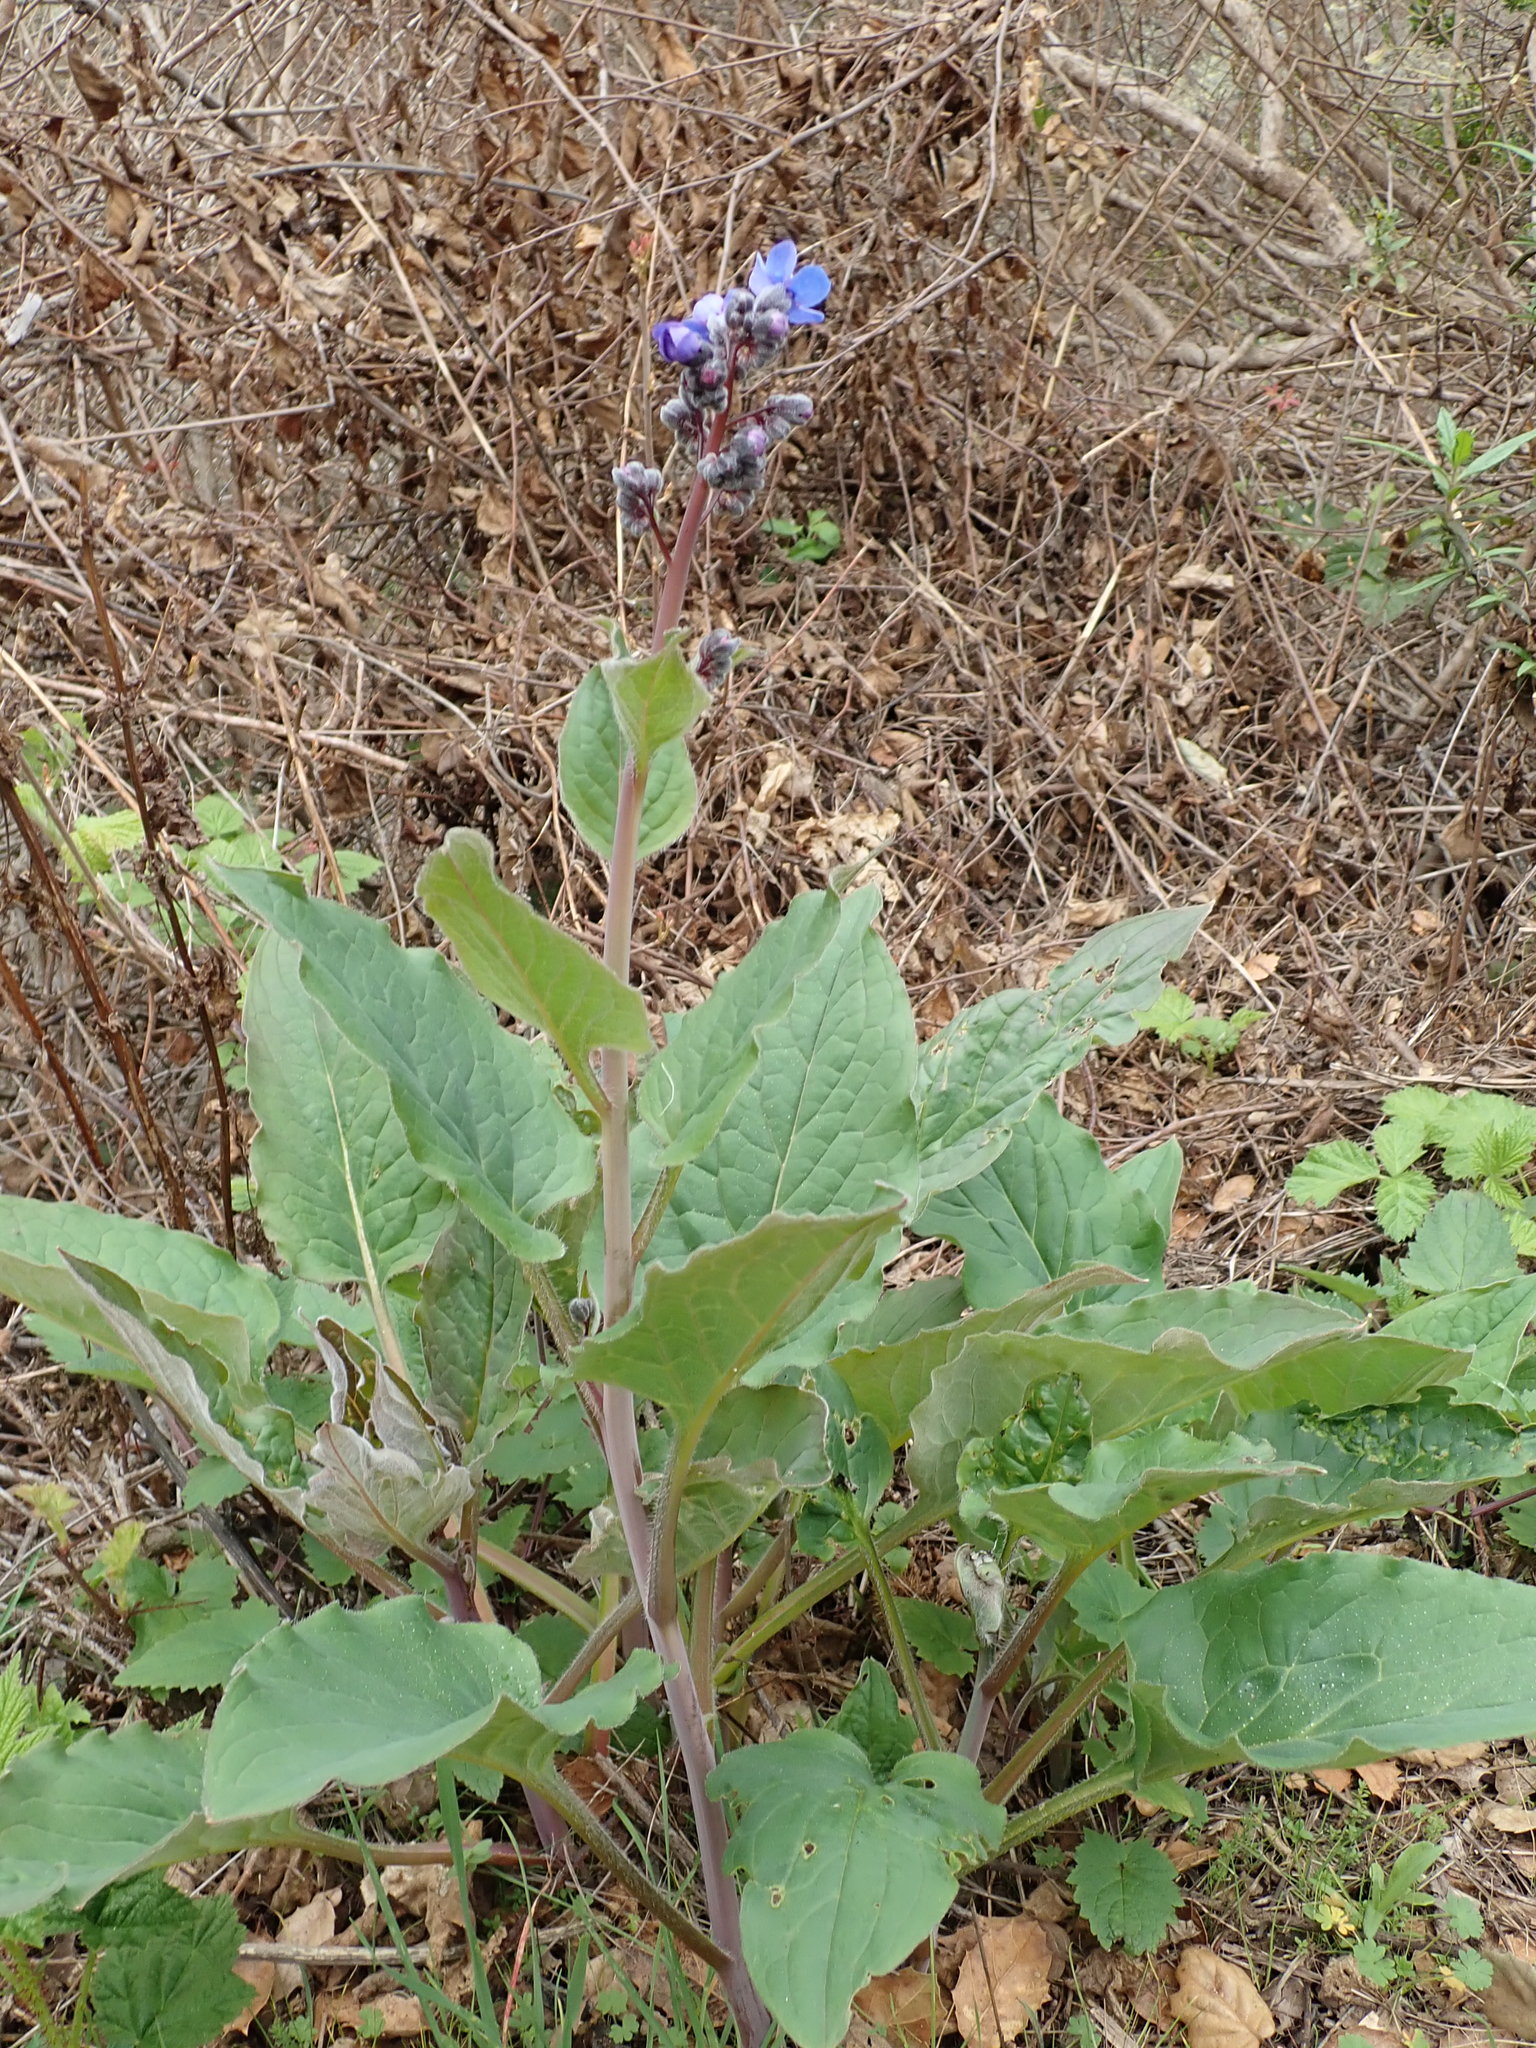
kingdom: Plantae
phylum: Tracheophyta
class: Magnoliopsida
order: Boraginales
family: Boraginaceae
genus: Adelinia
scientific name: Adelinia grande
